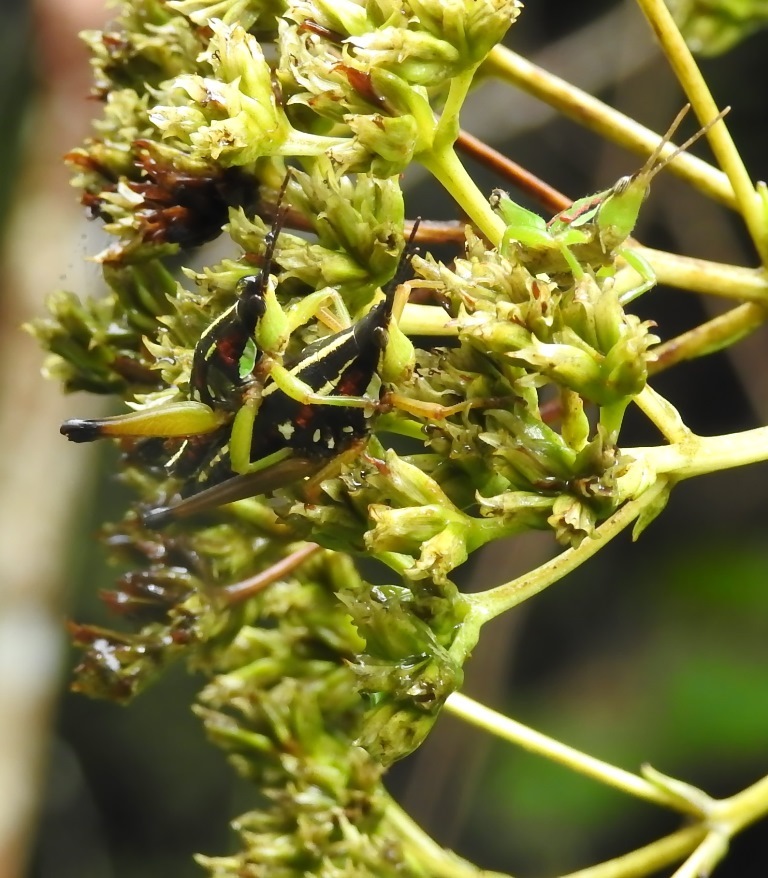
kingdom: Animalia
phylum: Arthropoda
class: Insecta
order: Orthoptera
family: Pyrgomorphidae
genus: Sphenarium
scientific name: Sphenarium histrio
